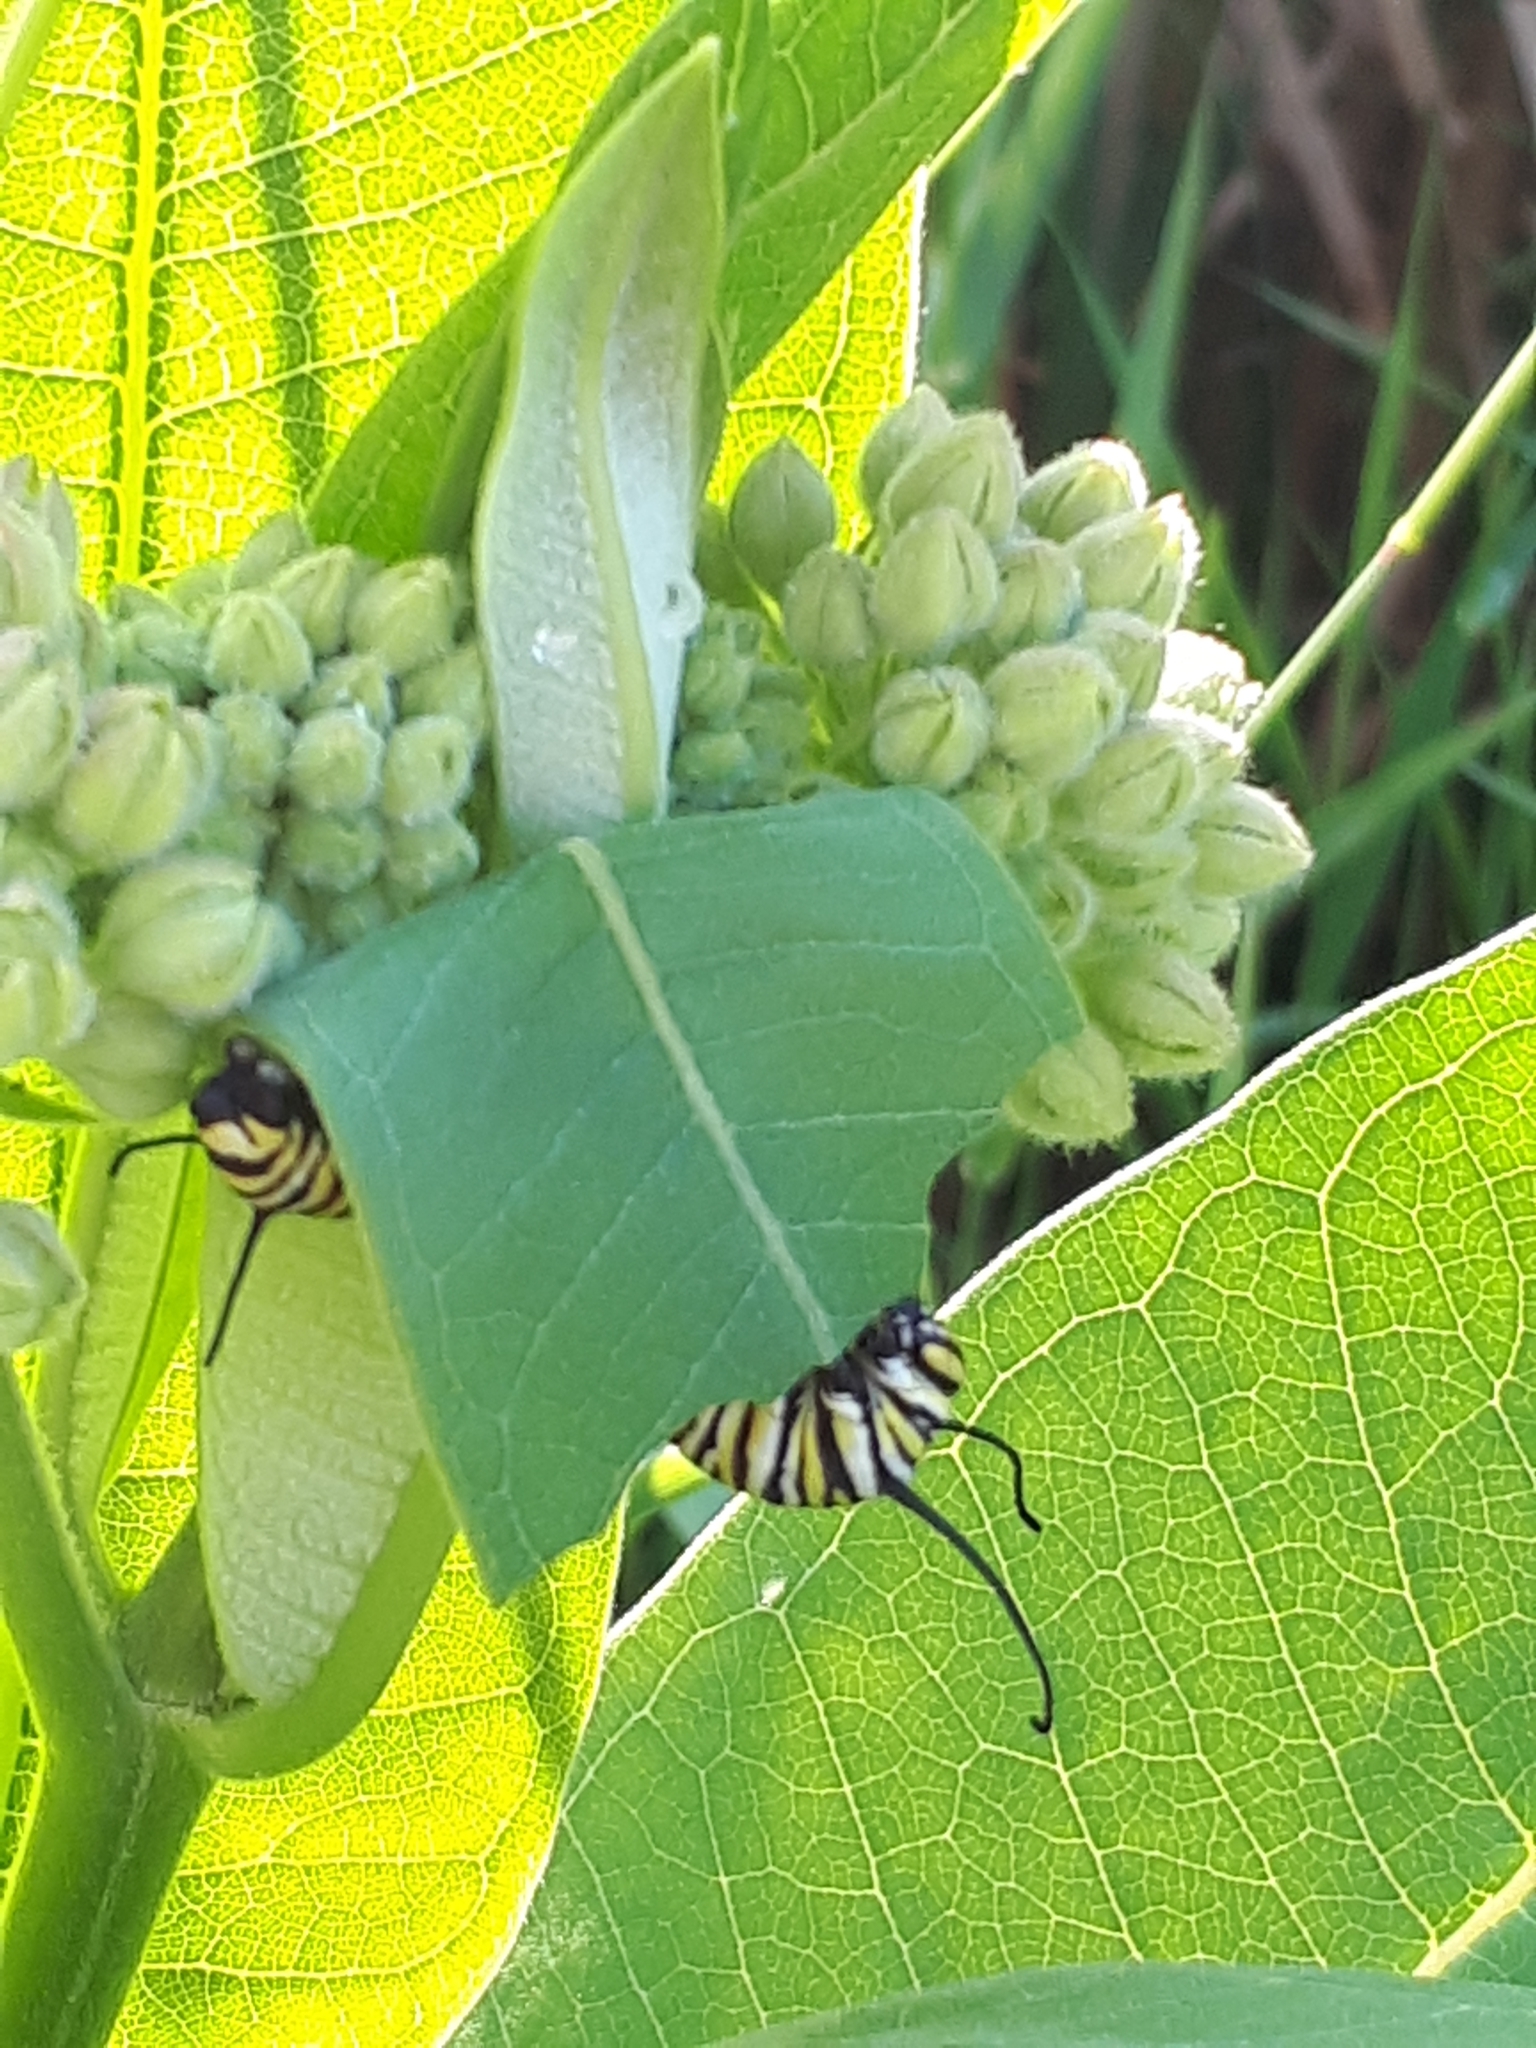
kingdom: Animalia
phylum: Arthropoda
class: Insecta
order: Lepidoptera
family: Nymphalidae
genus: Danaus
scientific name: Danaus plexippus
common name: Monarch
